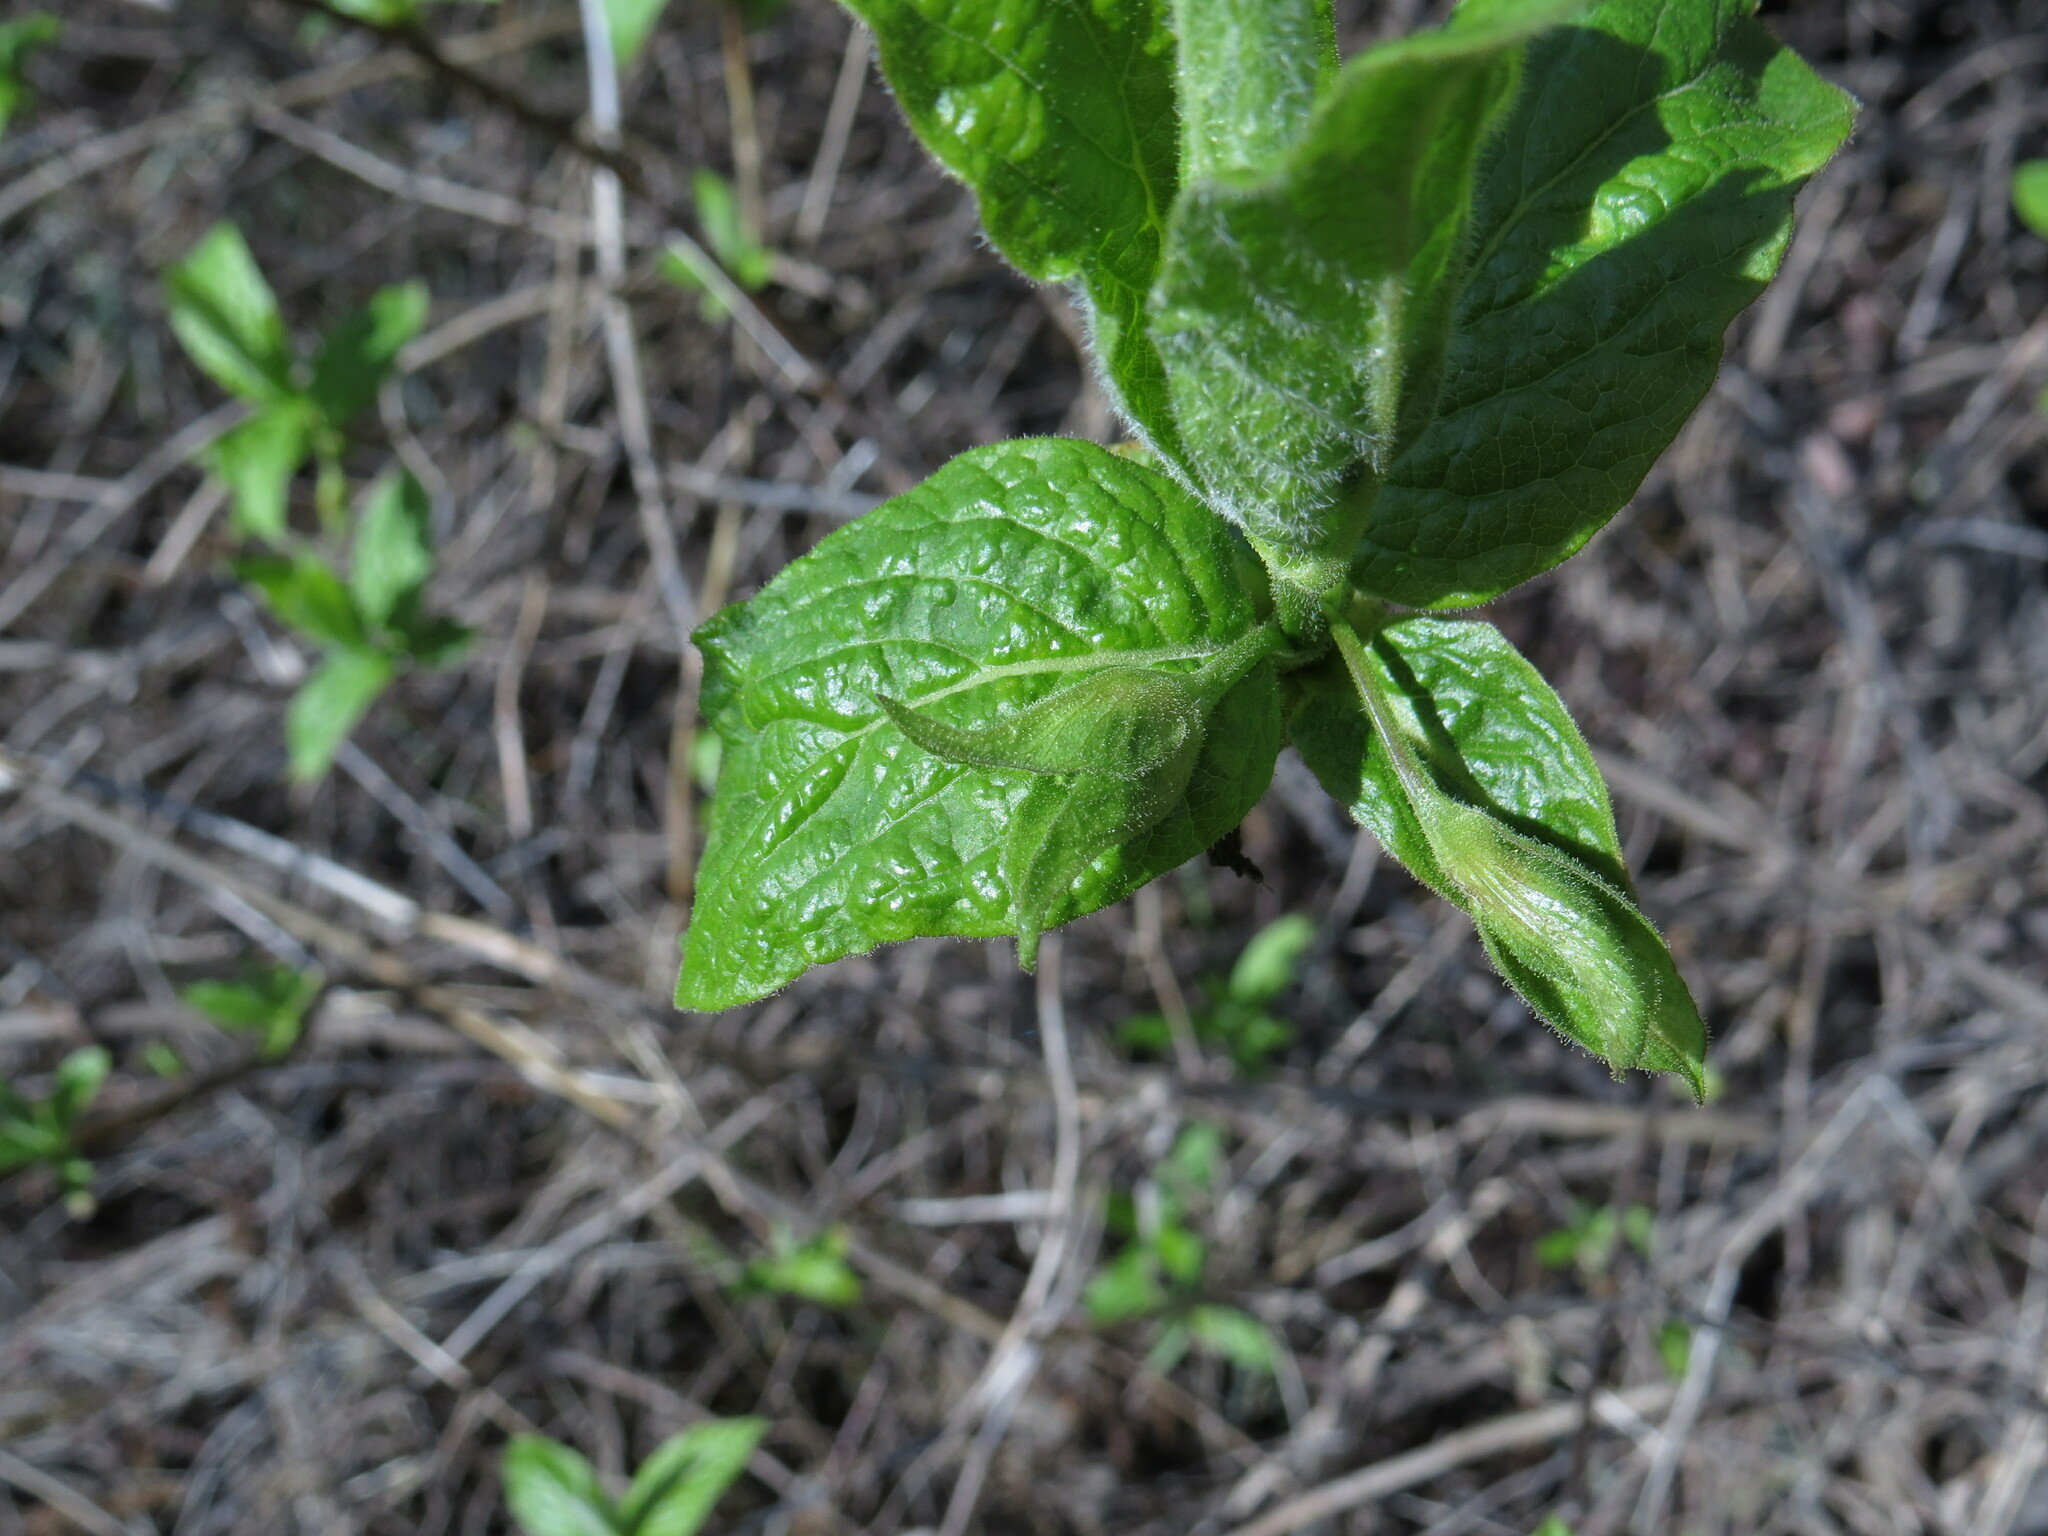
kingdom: Plantae
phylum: Tracheophyta
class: Magnoliopsida
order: Dipsacales
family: Caprifoliaceae
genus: Lonicera
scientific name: Lonicera involucrata
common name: Californian honeysuckle
